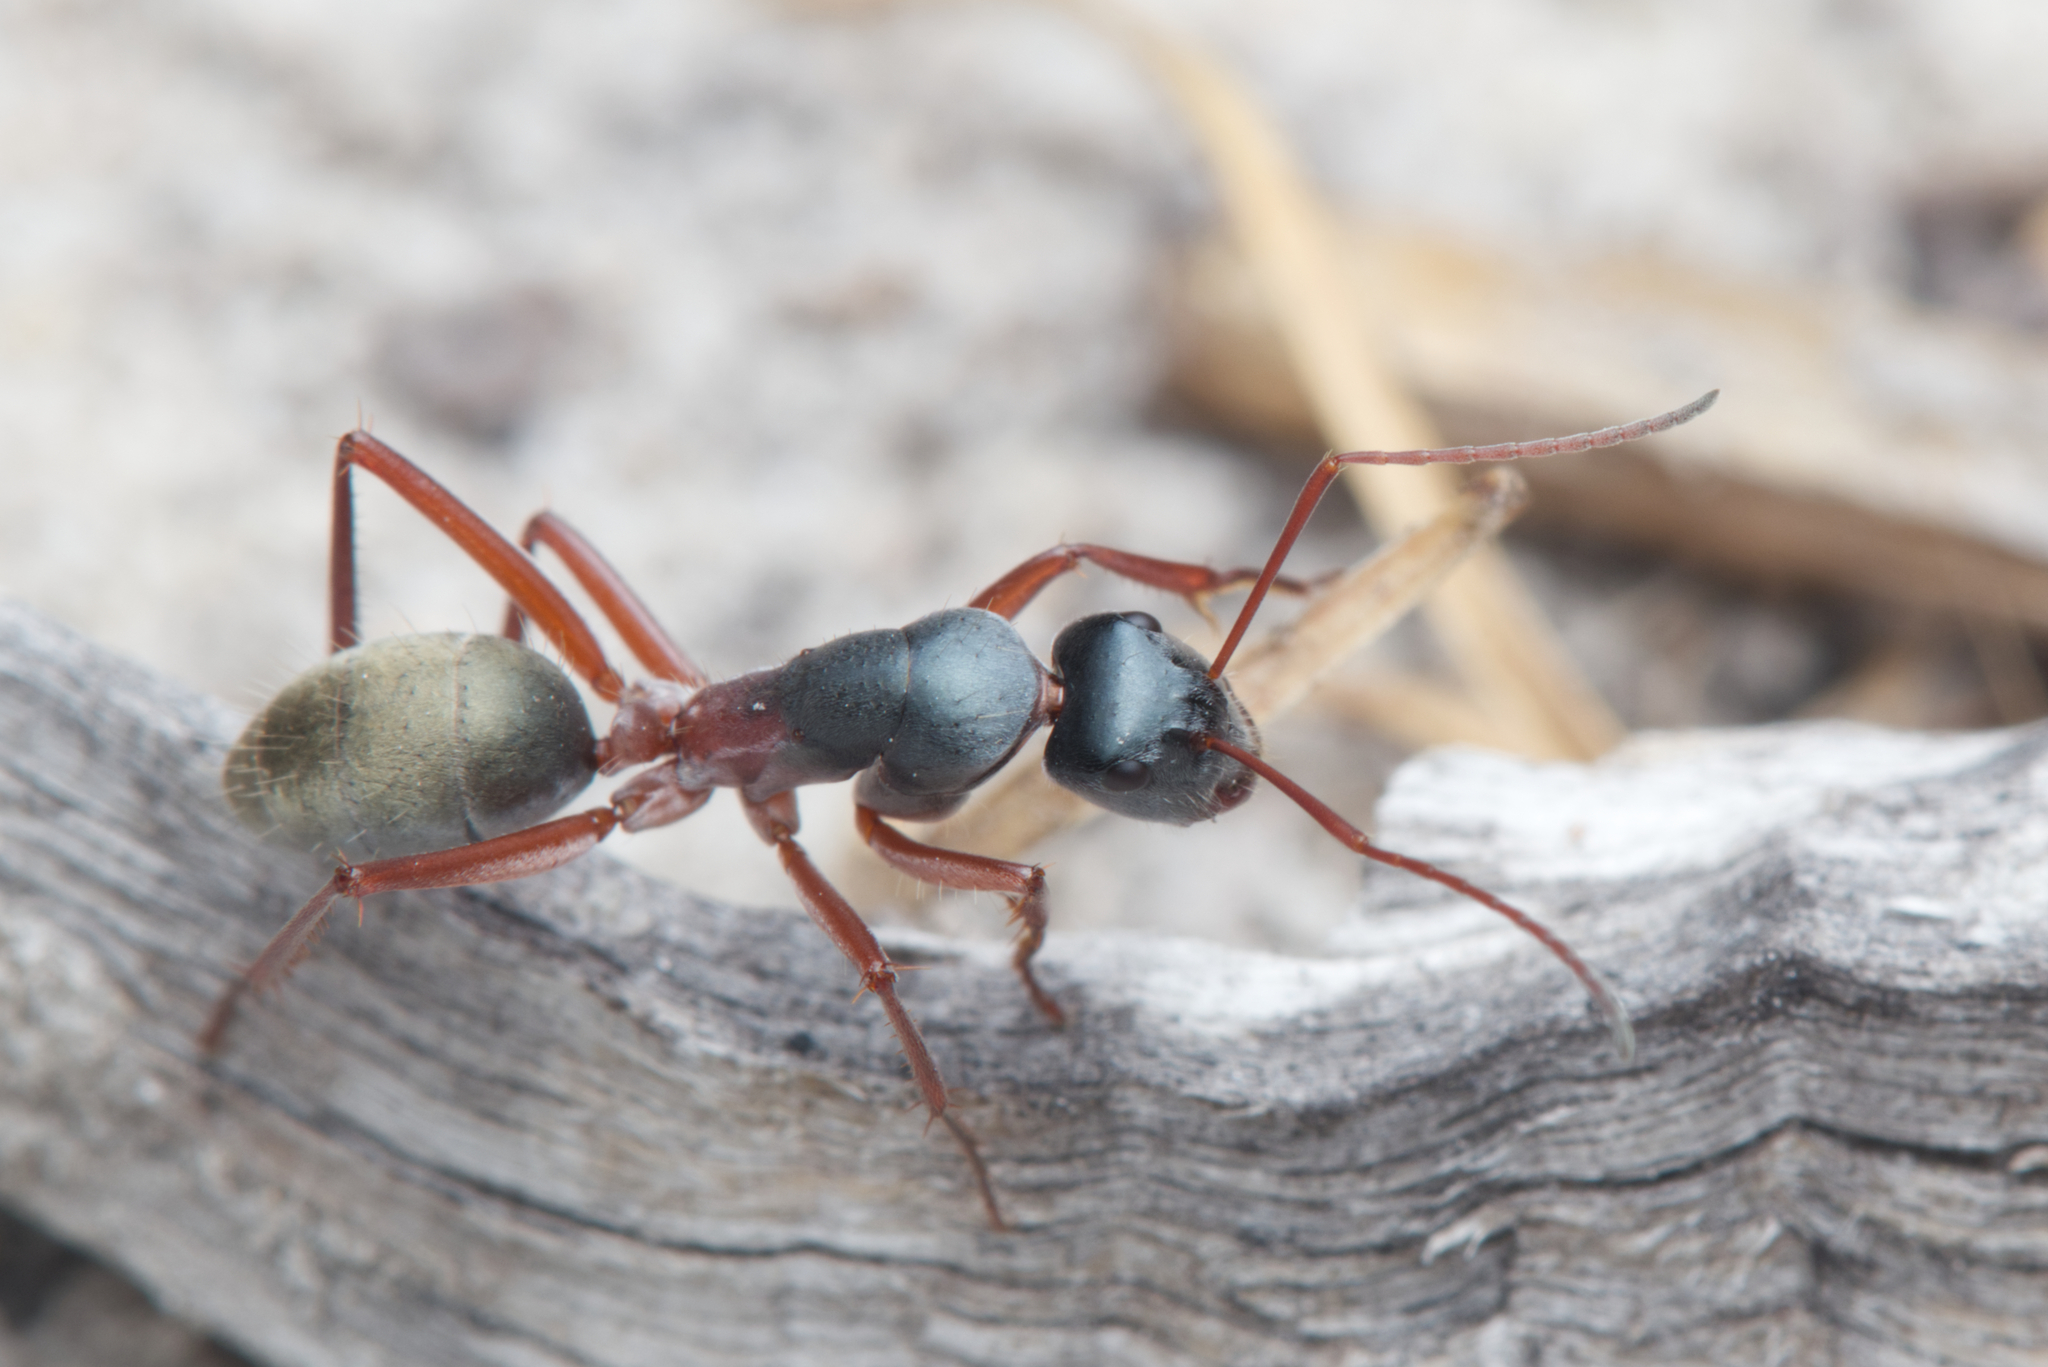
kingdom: Animalia
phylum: Arthropoda
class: Insecta
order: Hymenoptera
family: Formicidae
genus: Camponotus
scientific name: Camponotus dromas
